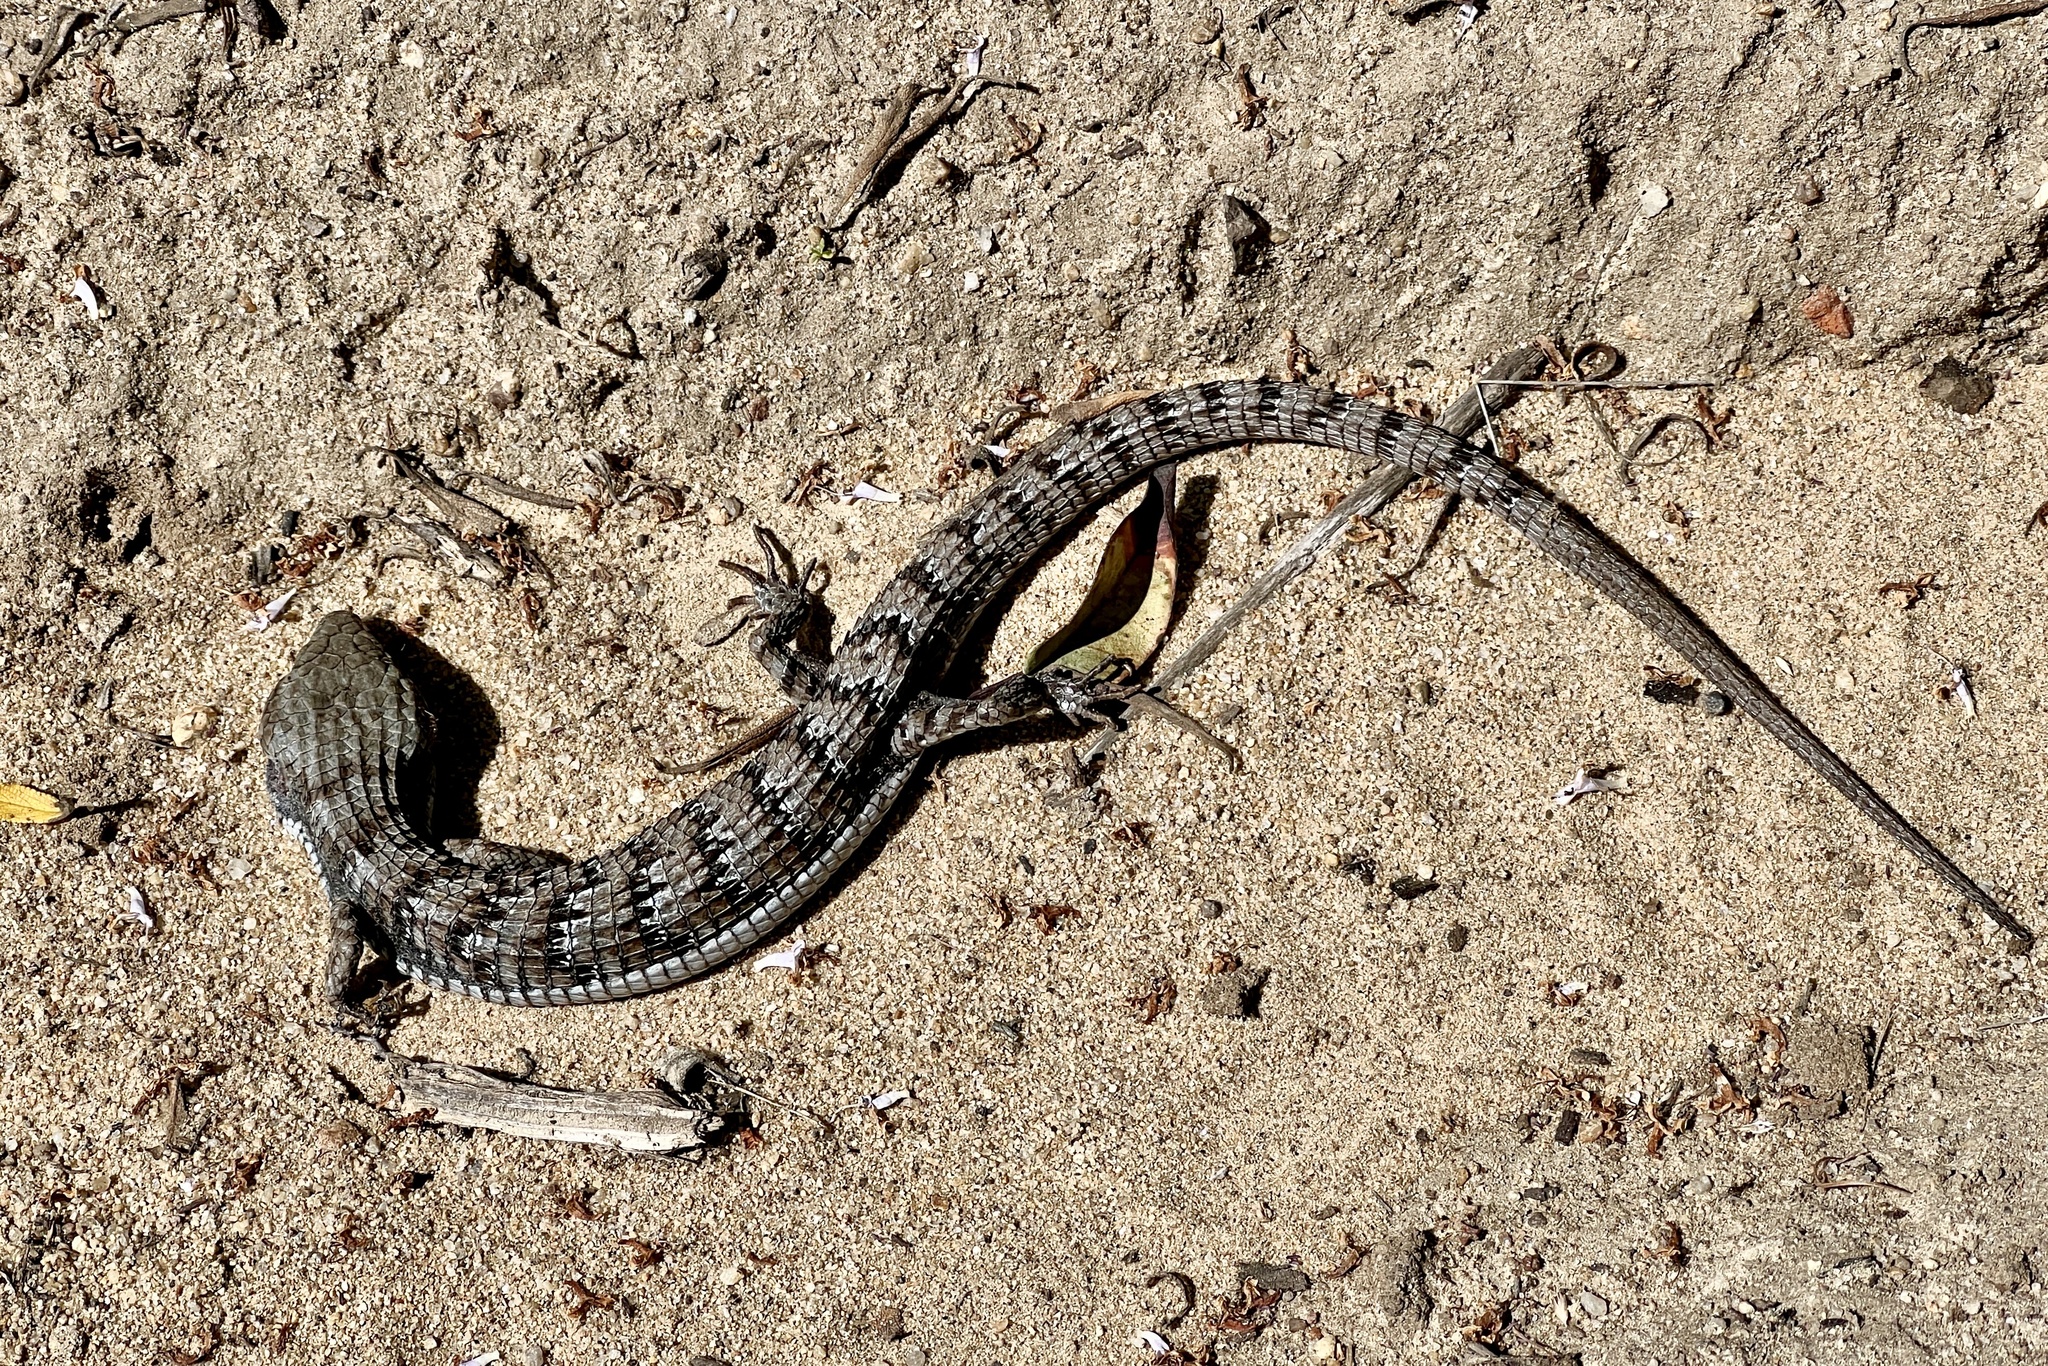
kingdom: Animalia
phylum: Chordata
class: Squamata
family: Anguidae
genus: Elgaria
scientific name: Elgaria multicarinata
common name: Southern alligator lizard
